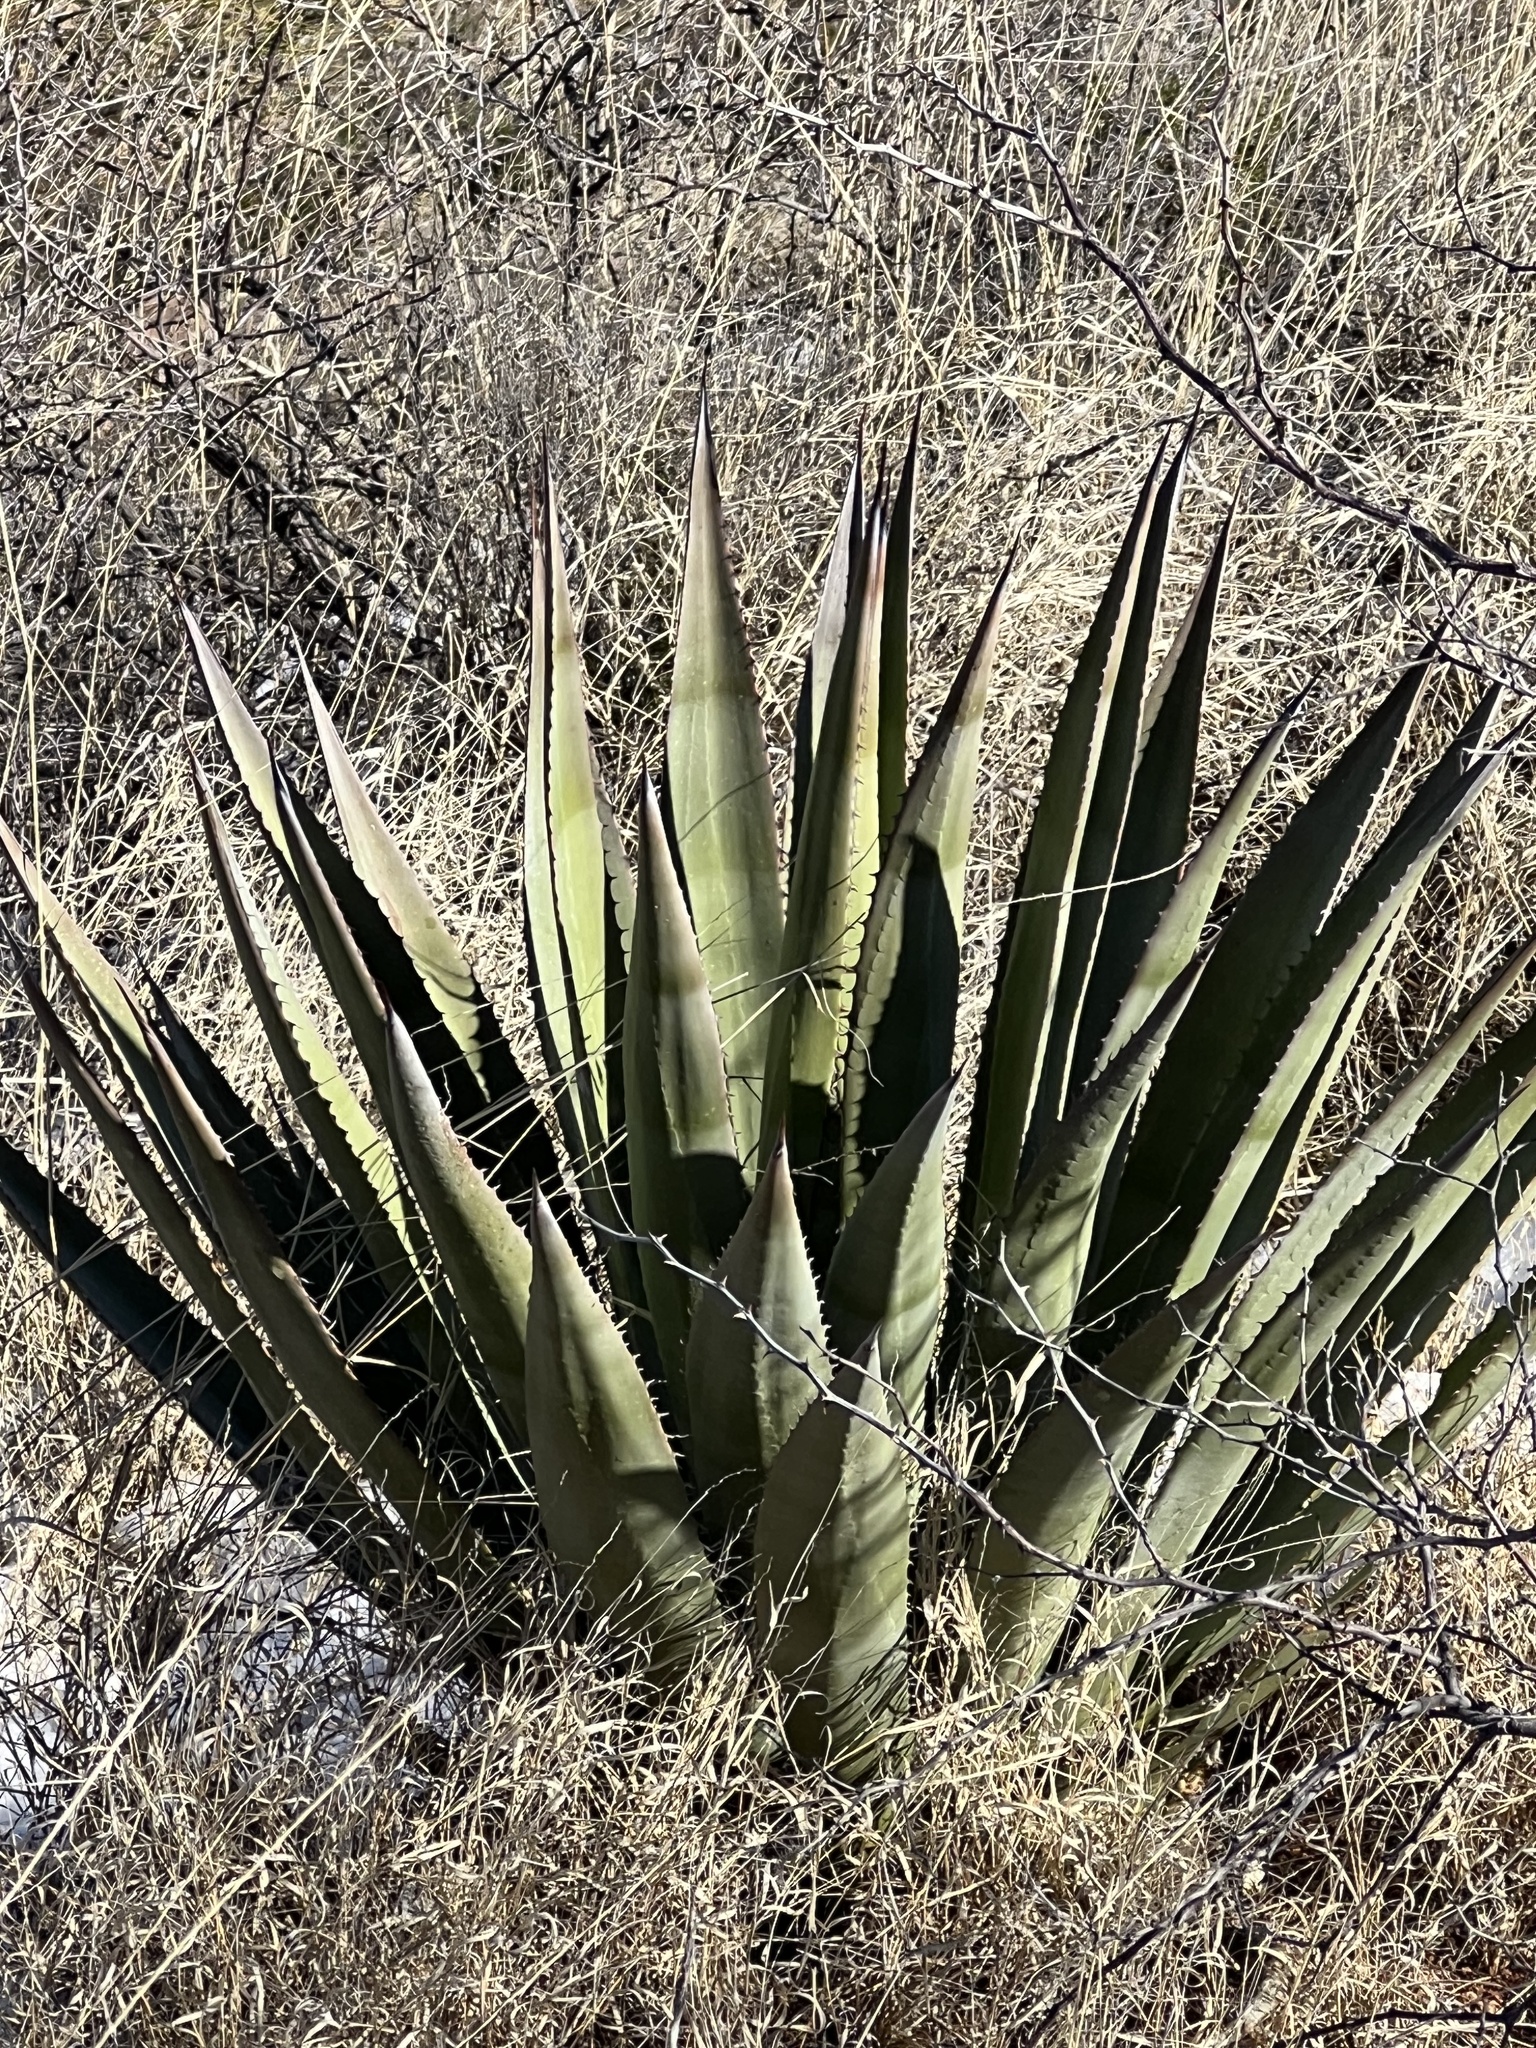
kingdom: Plantae
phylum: Tracheophyta
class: Liliopsida
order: Asparagales
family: Asparagaceae
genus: Agave
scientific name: Agave palmeri
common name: Palmer agave
